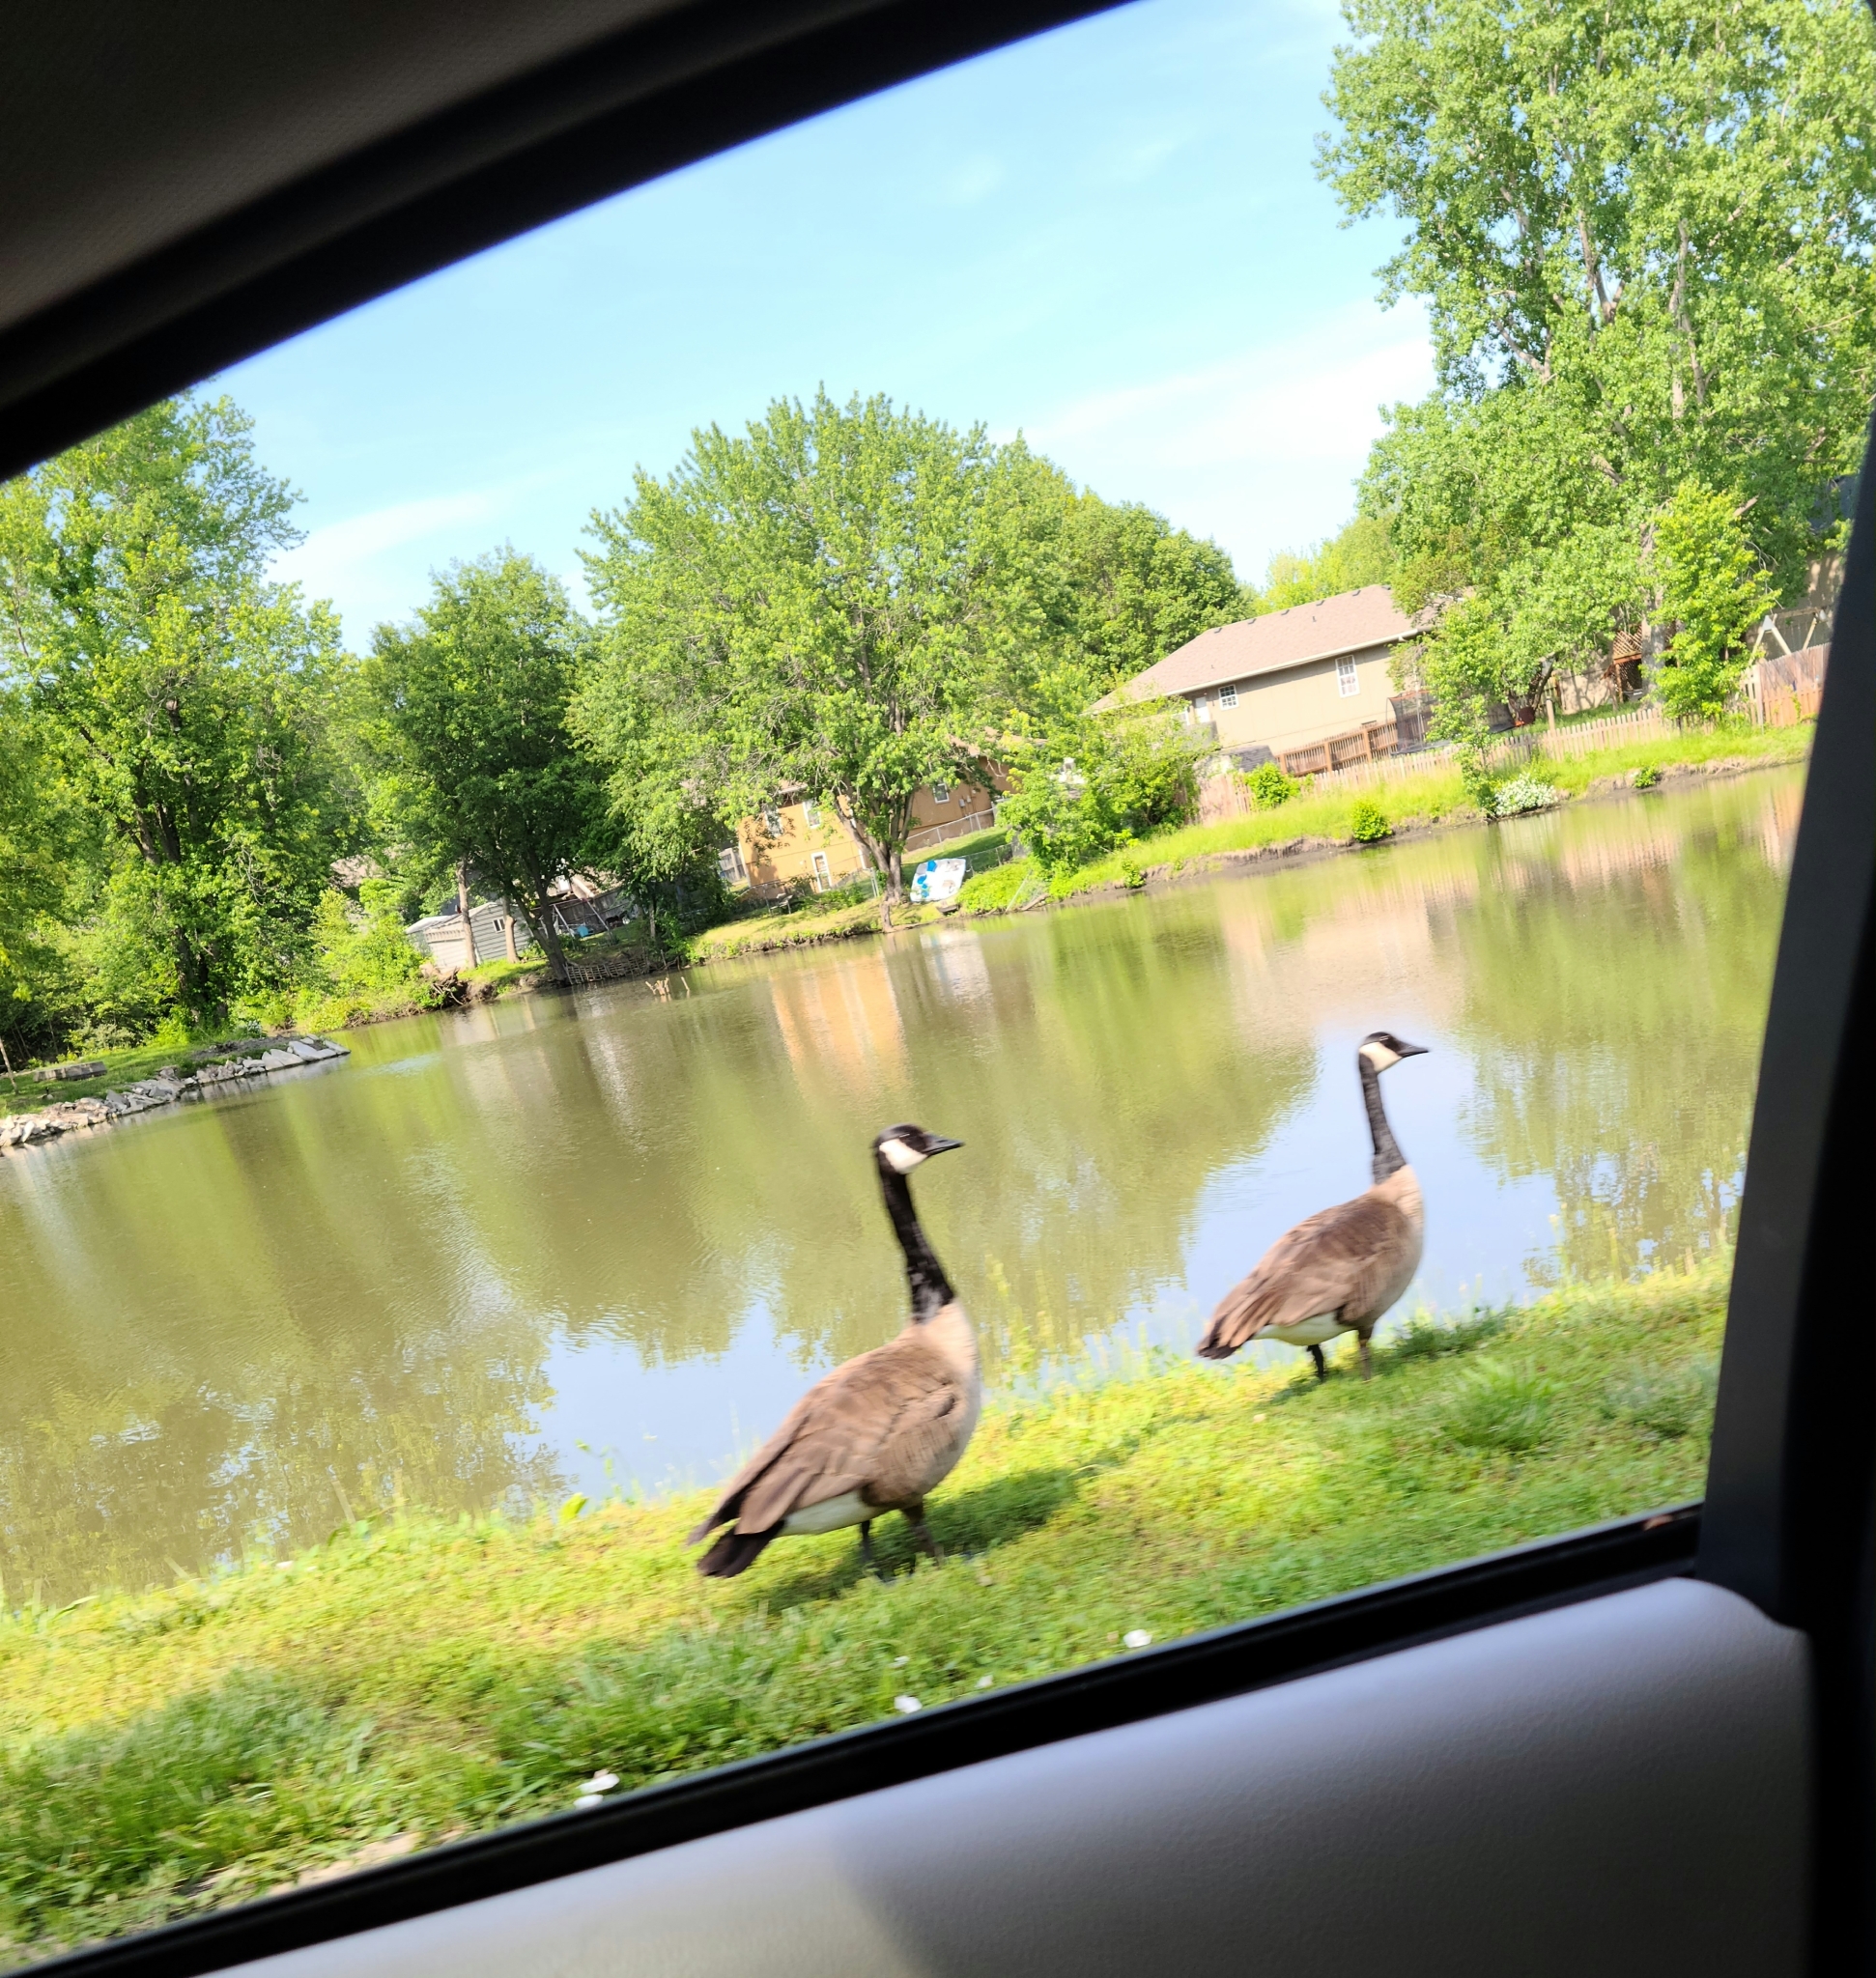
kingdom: Animalia
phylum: Chordata
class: Aves
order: Anseriformes
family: Anatidae
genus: Branta
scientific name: Branta canadensis
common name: Canada goose
